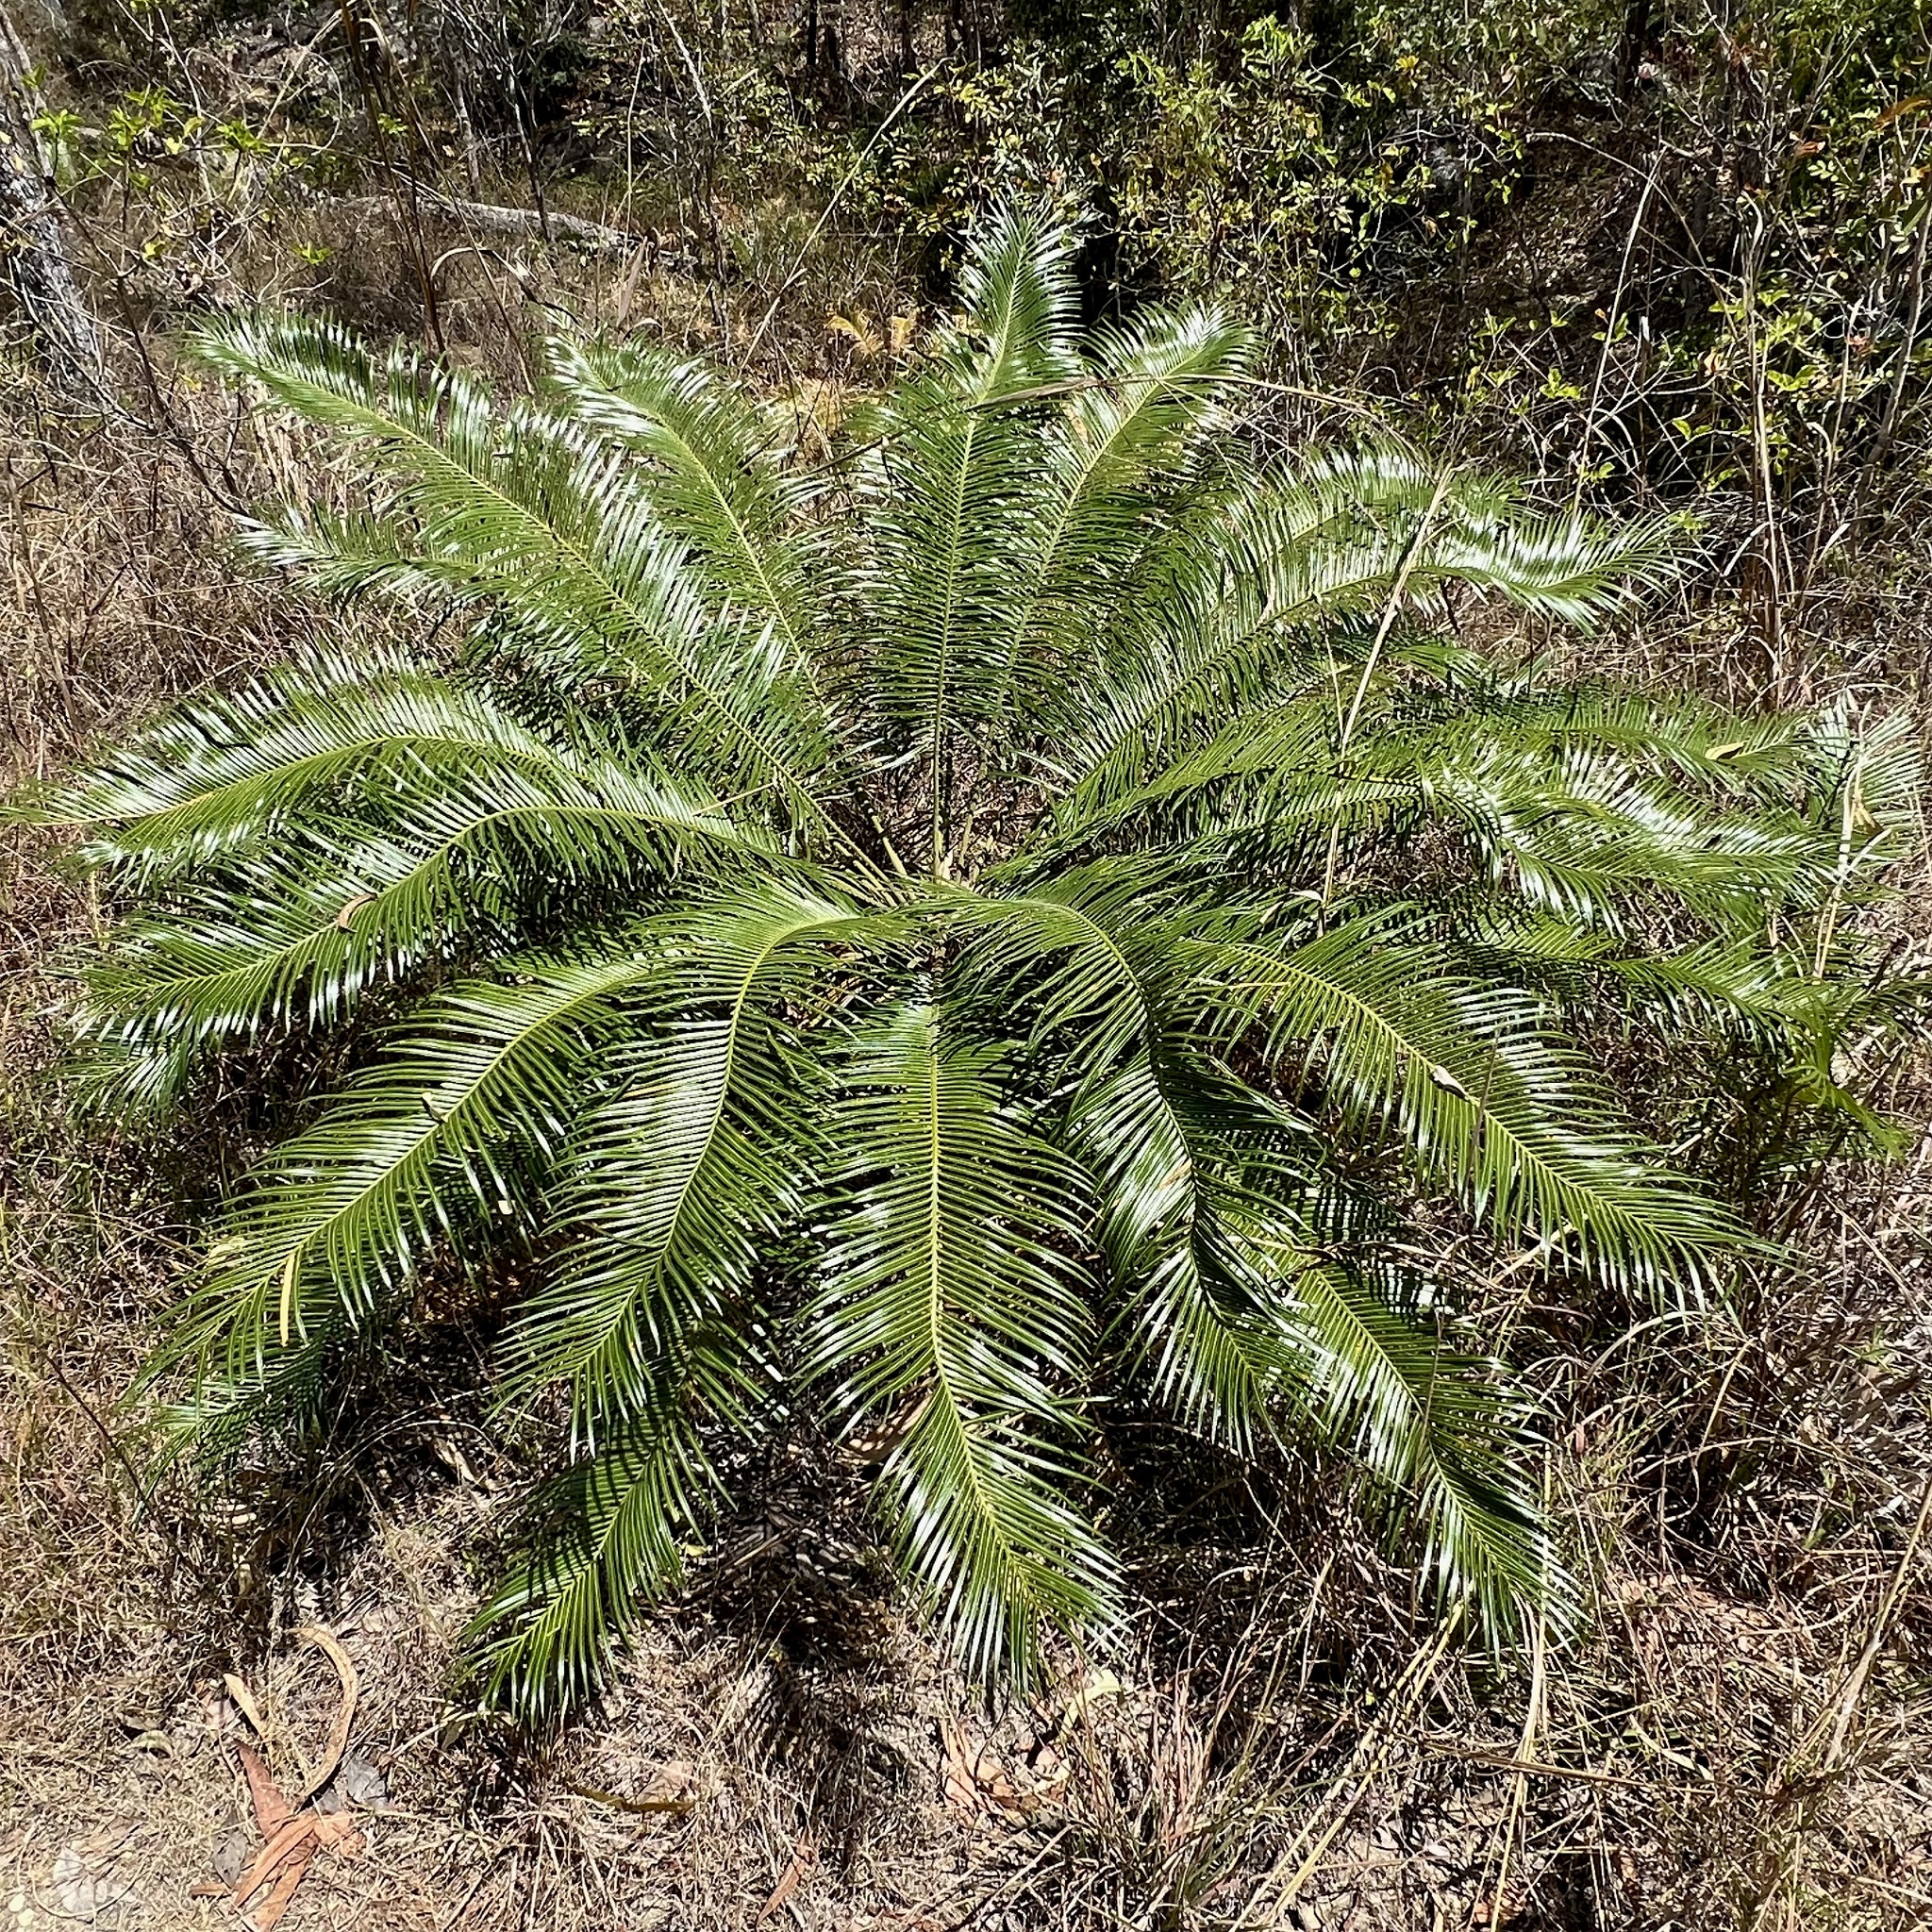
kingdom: Plantae
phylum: Tracheophyta
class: Cycadopsida
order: Cycadales
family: Cycadaceae
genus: Cycas
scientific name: Cycas media
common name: Queensland cycas
